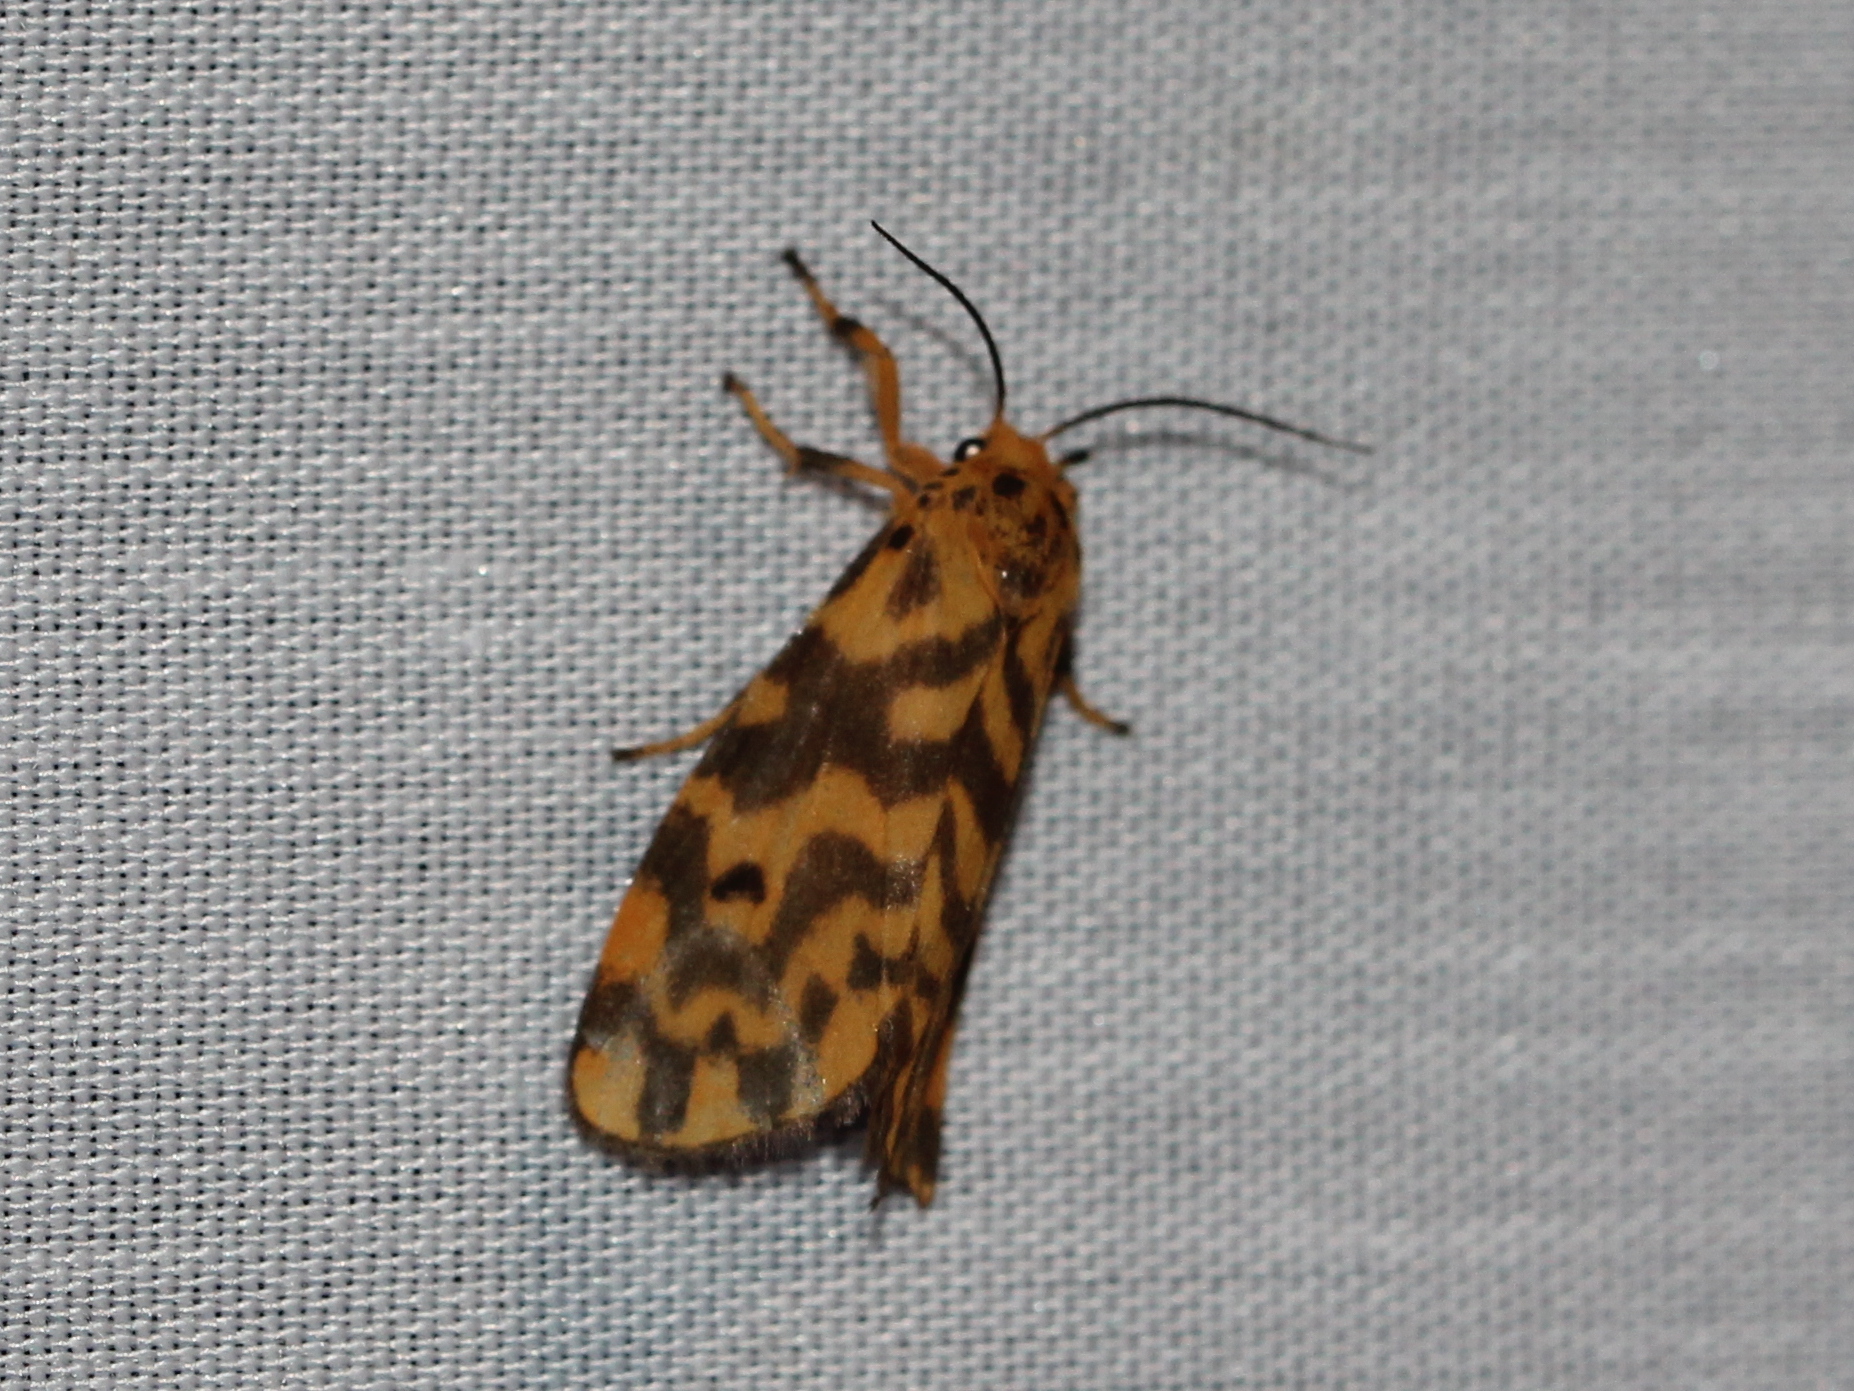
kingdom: Animalia
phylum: Arthropoda
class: Insecta
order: Lepidoptera
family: Erebidae
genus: Nepita
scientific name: Nepita conferta
